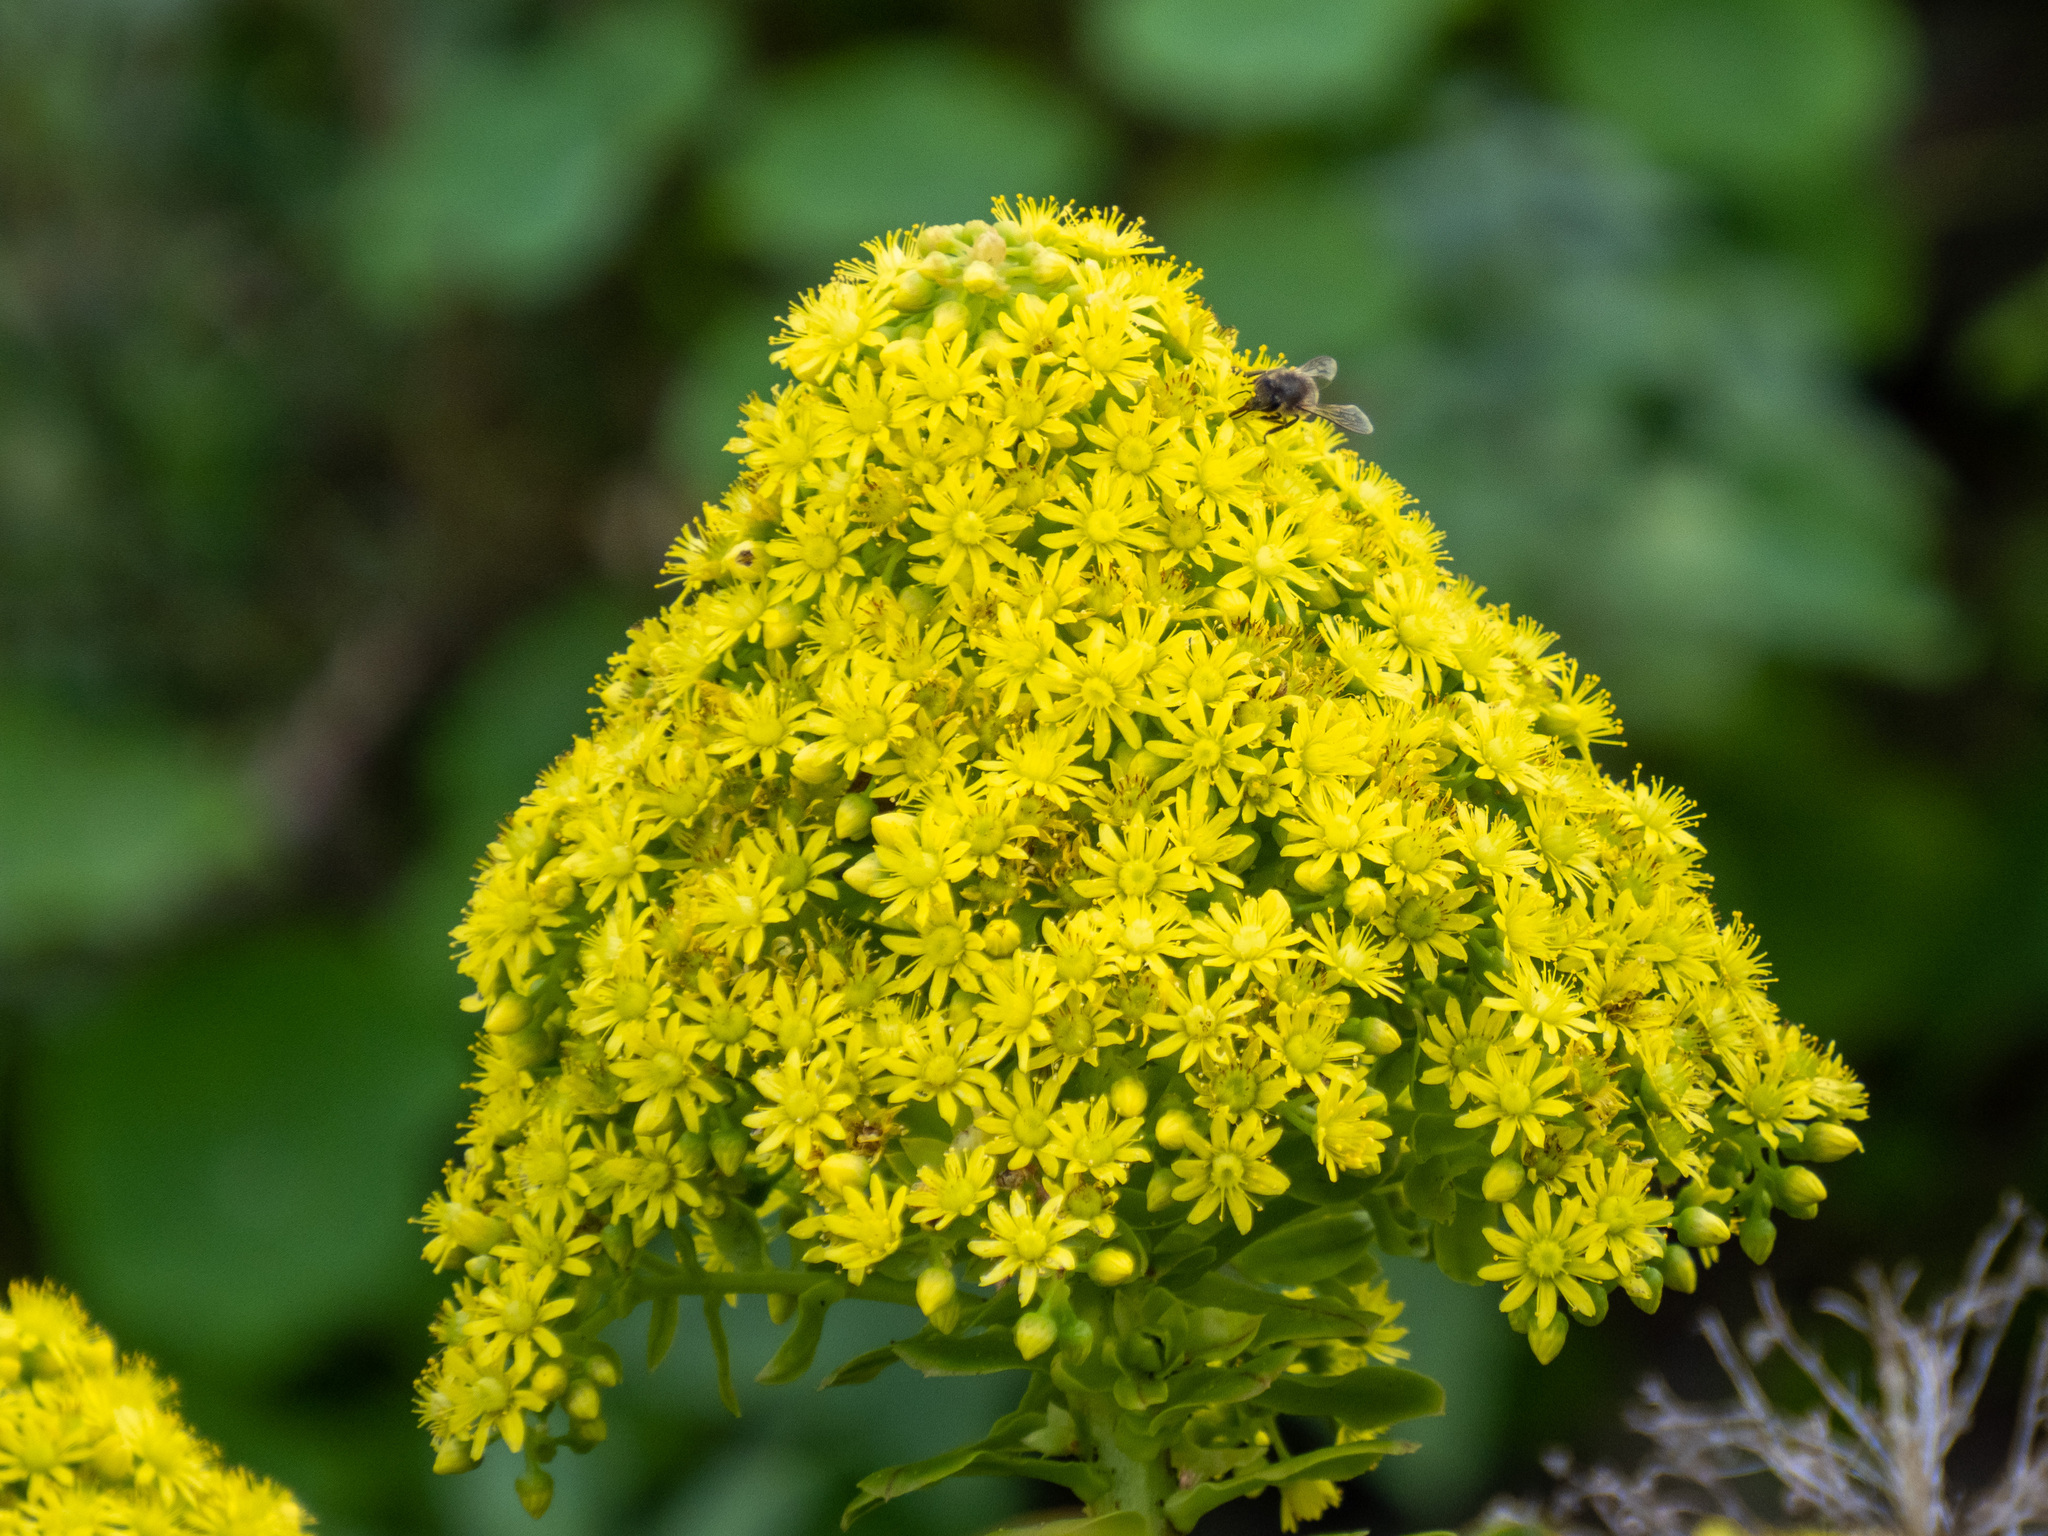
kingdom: Plantae
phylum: Tracheophyta
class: Magnoliopsida
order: Saxifragales
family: Crassulaceae
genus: Aeonium
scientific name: Aeonium arboreum
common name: Tree aeonium
